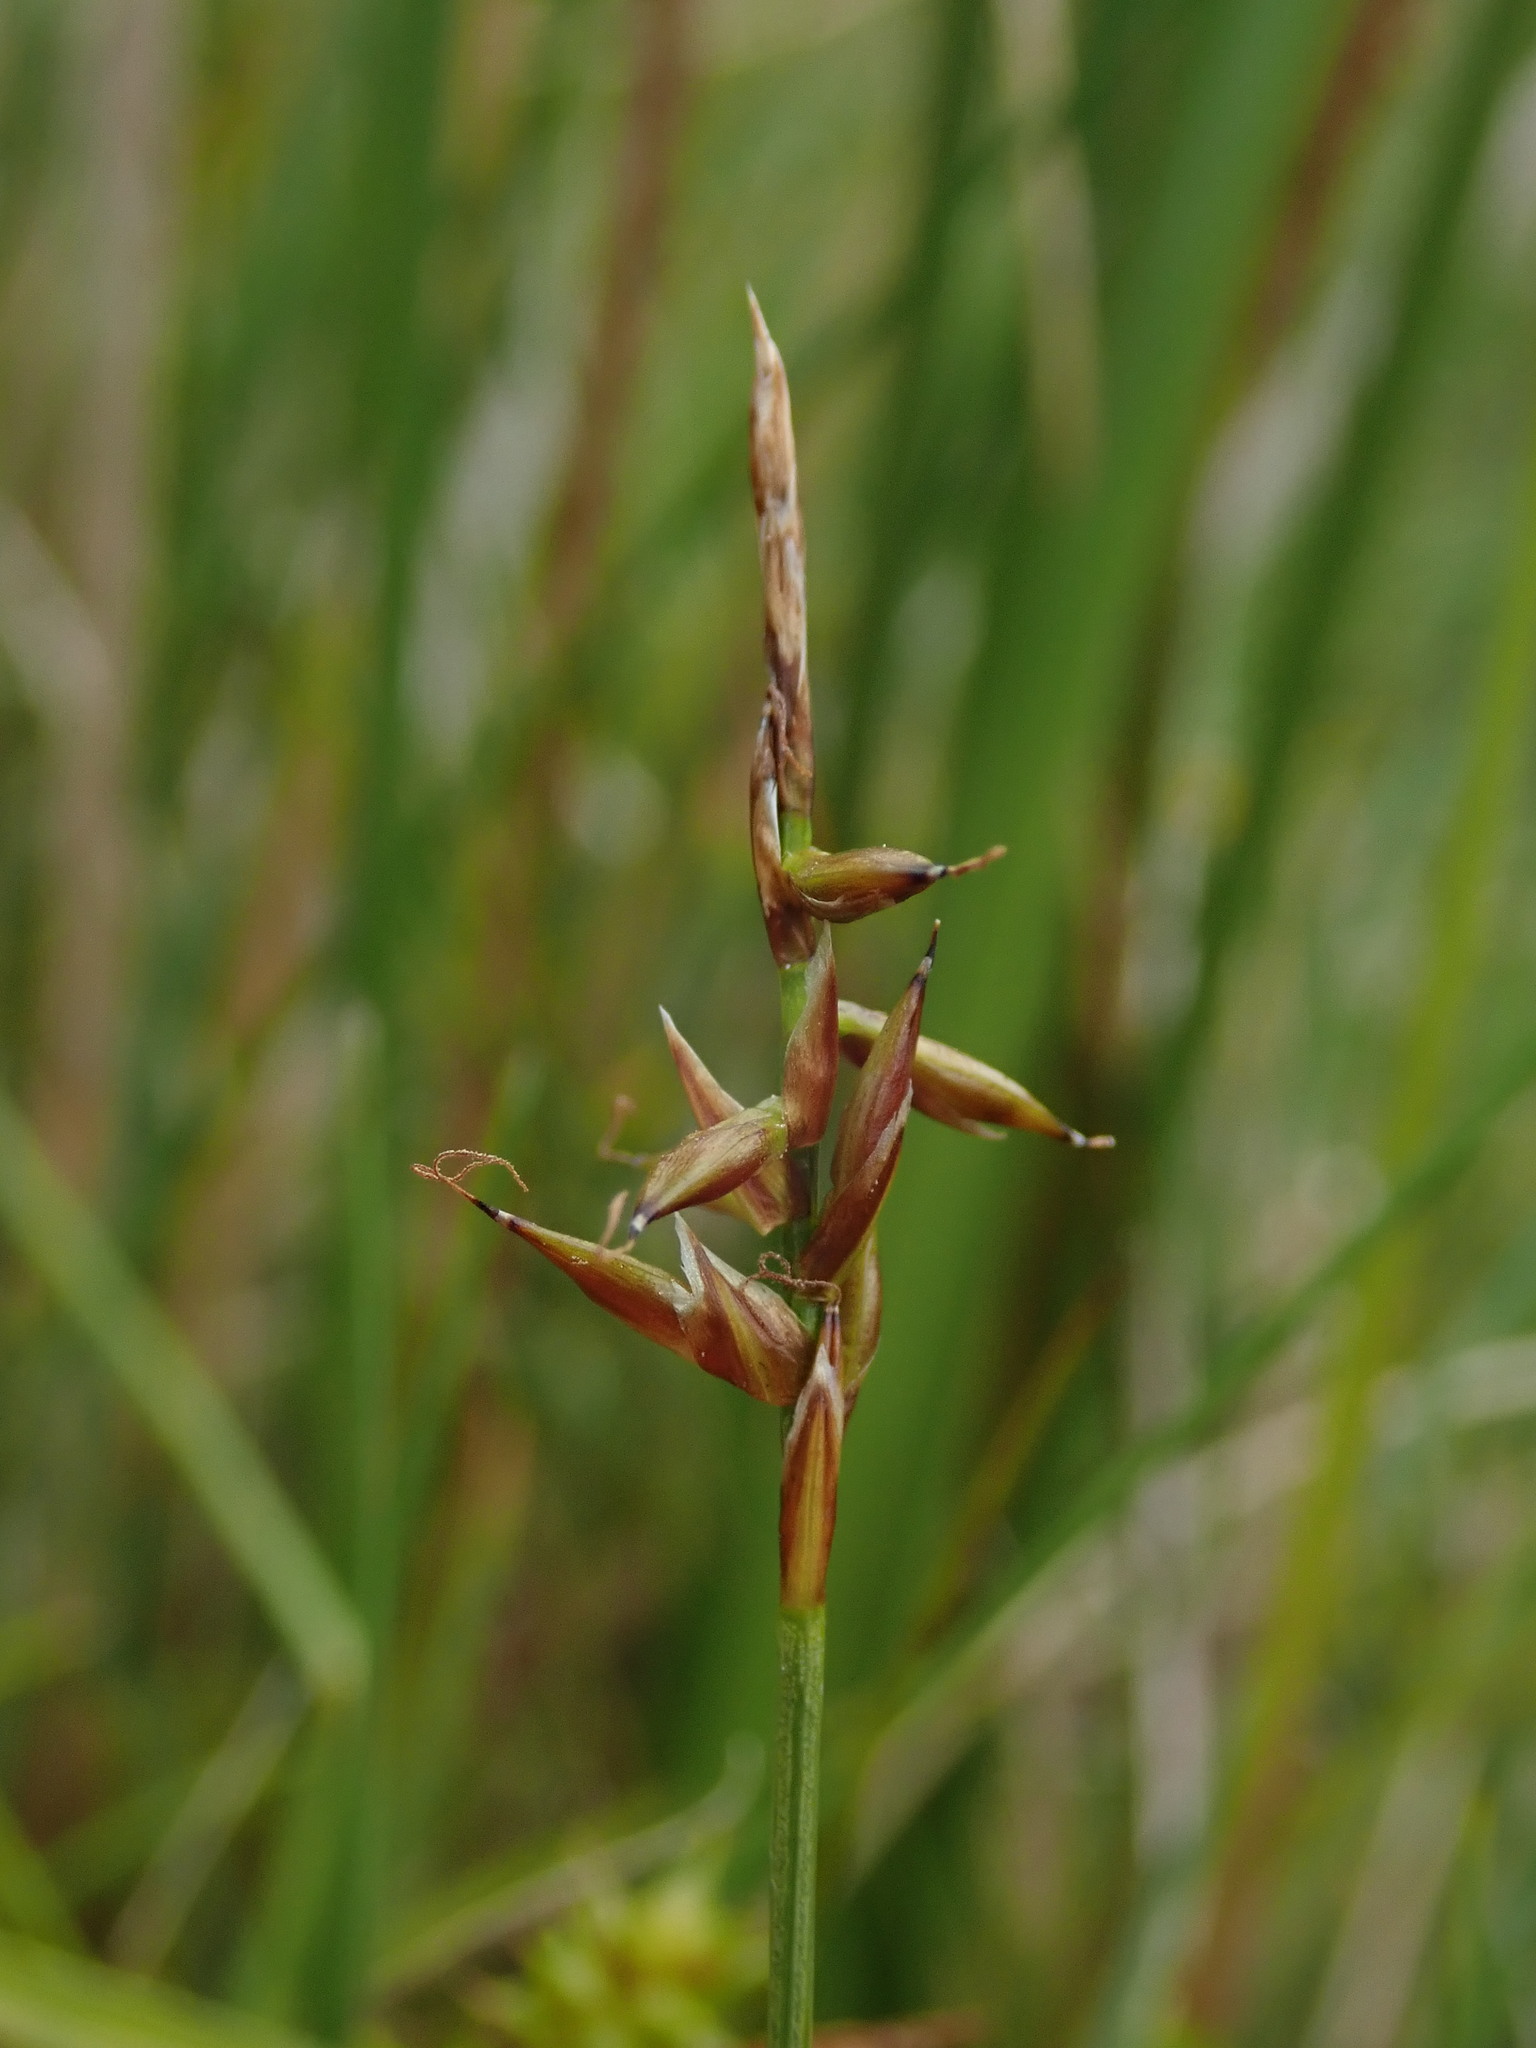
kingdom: Plantae
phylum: Tracheophyta
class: Liliopsida
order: Poales
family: Cyperaceae
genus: Carex
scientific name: Carex pulicaris
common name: Flea sedge
